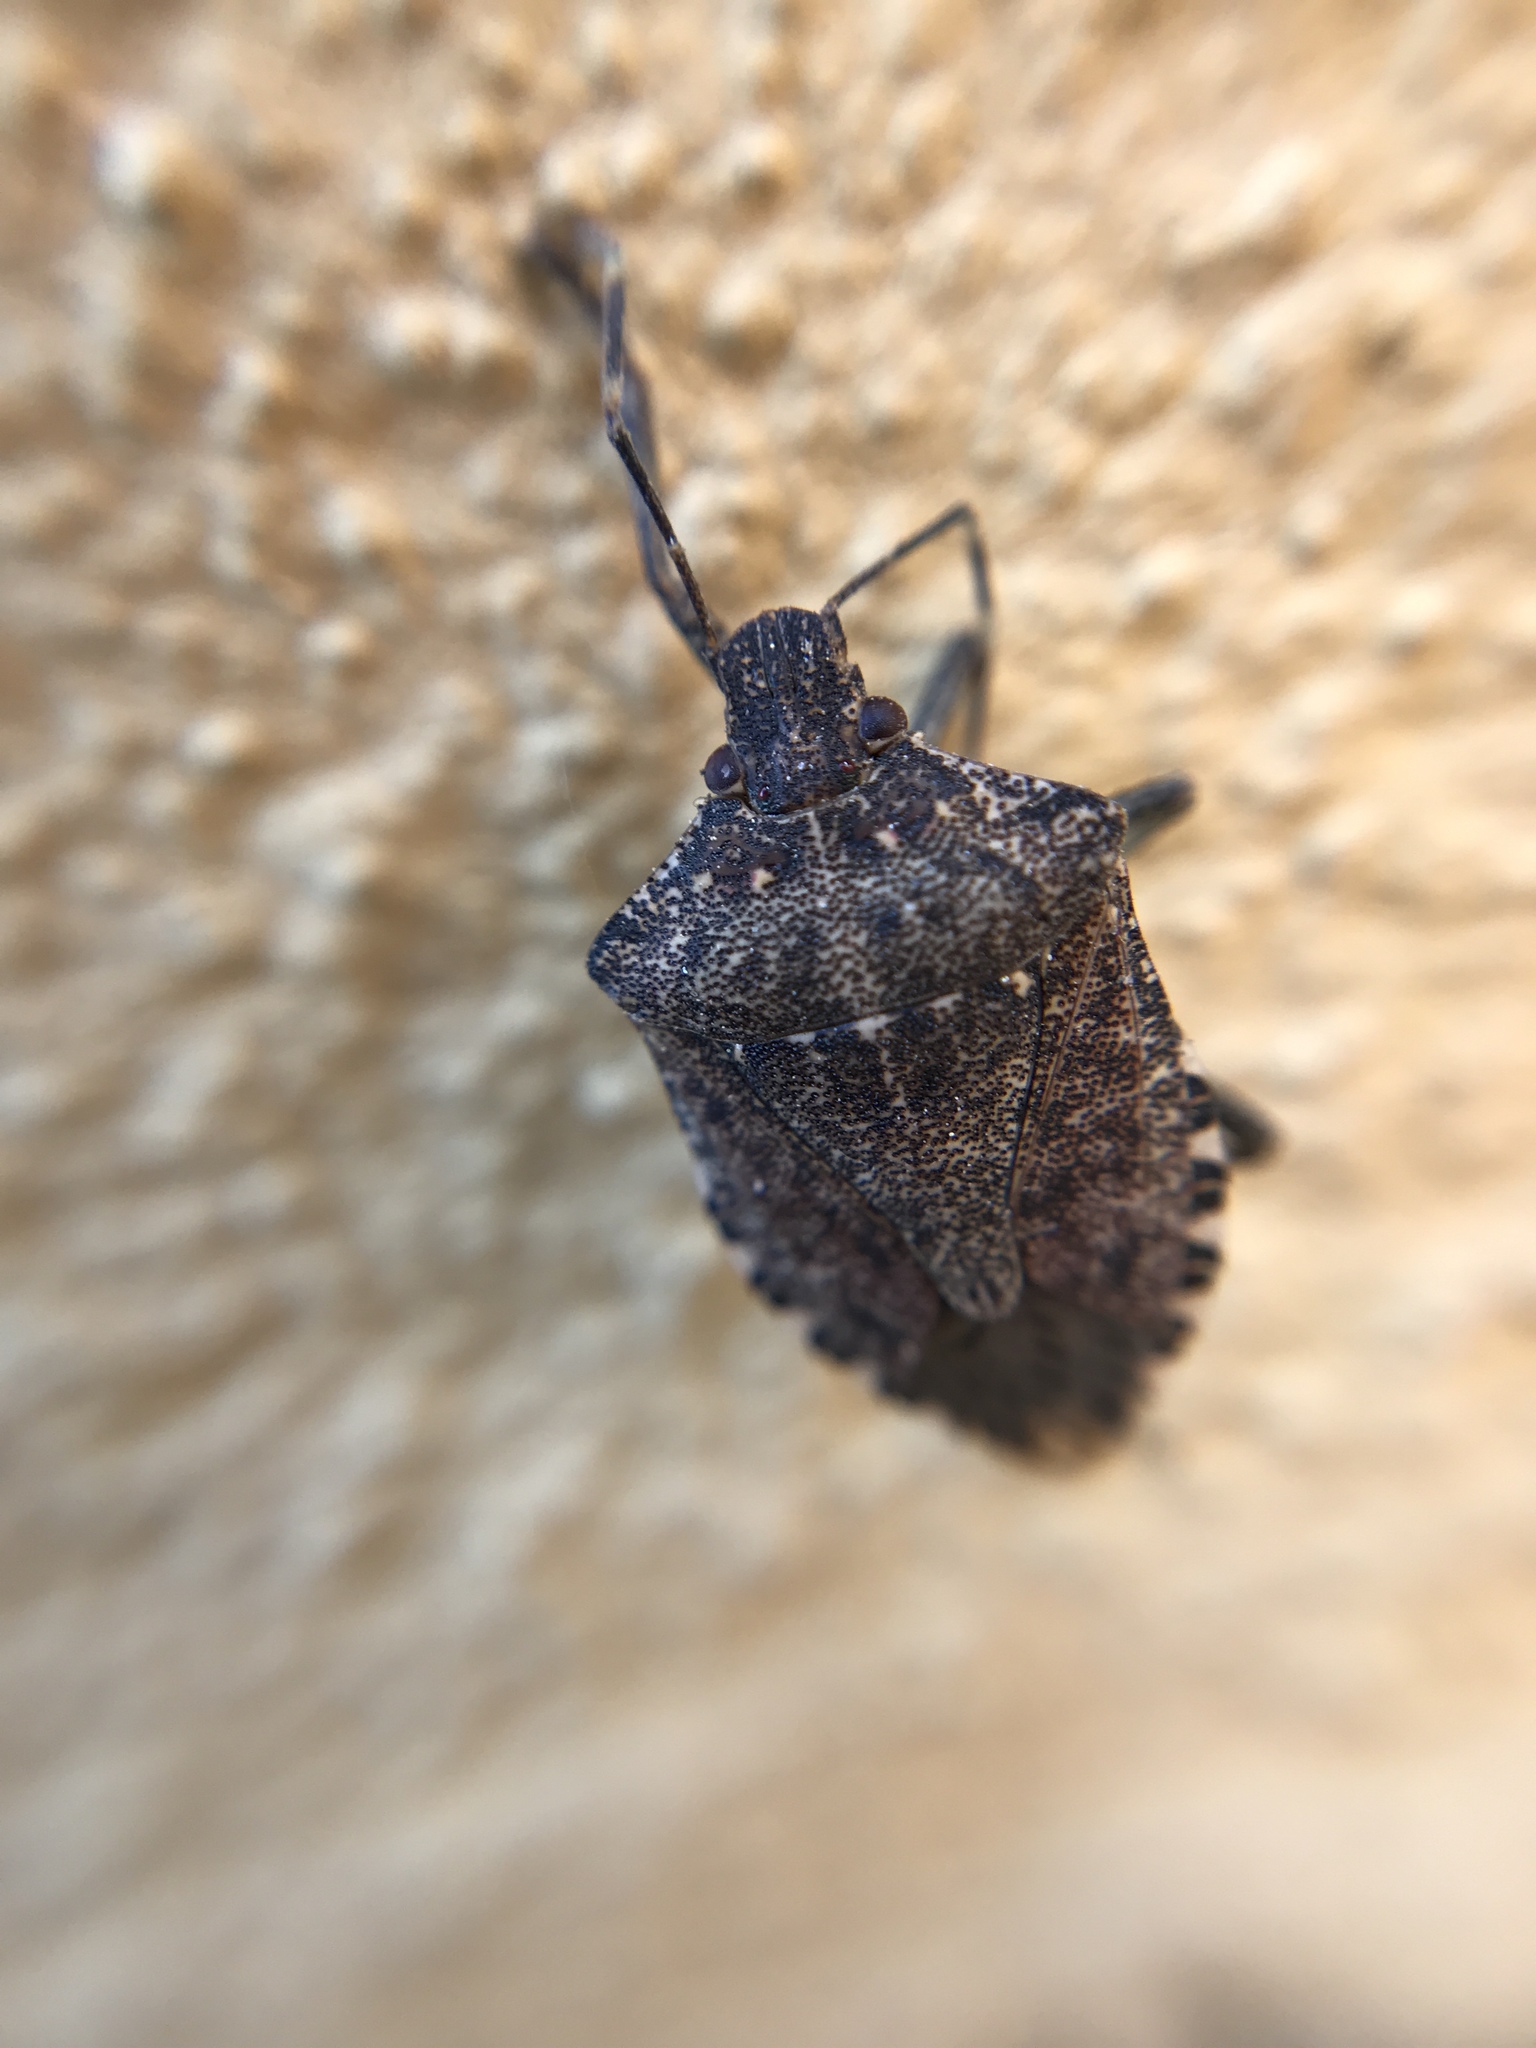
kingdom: Animalia
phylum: Arthropoda
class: Insecta
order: Hemiptera
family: Pentatomidae
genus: Halyomorpha
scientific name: Halyomorpha halys
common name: Brown marmorated stink bug
